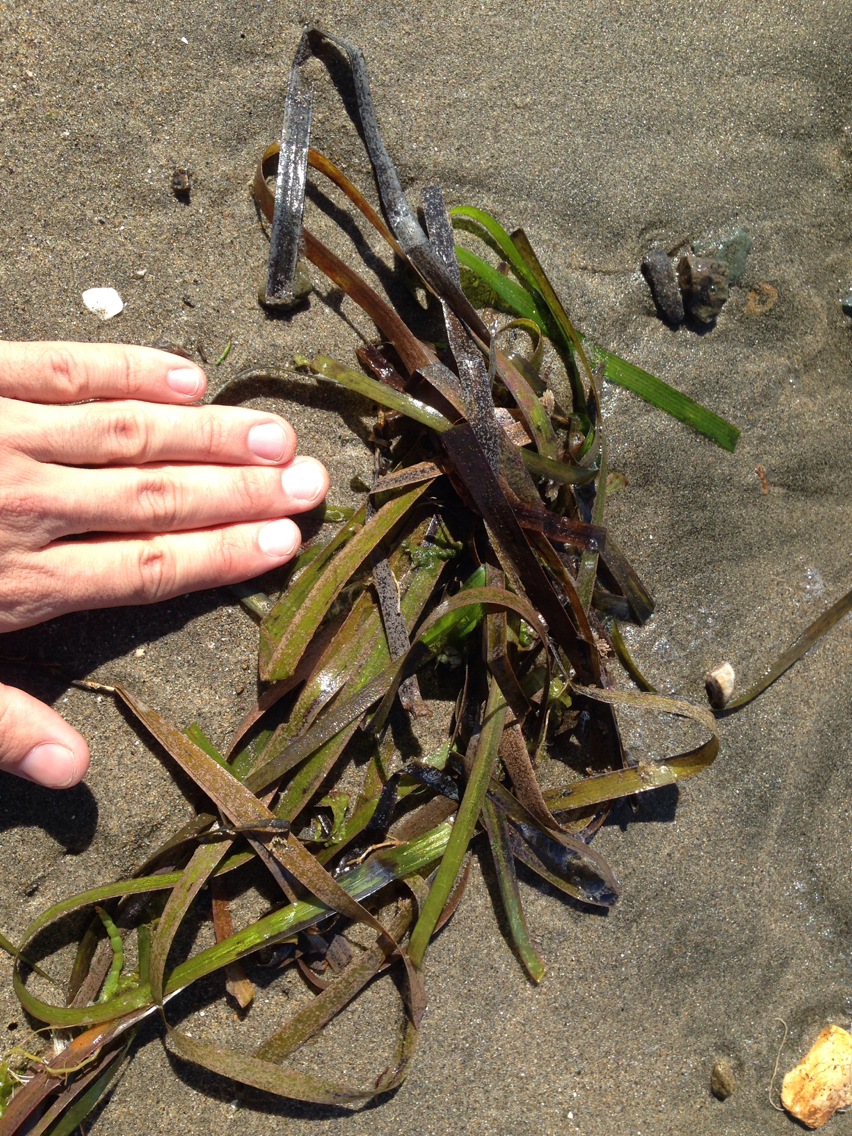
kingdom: Plantae
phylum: Tracheophyta
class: Liliopsida
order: Alismatales
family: Zosteraceae
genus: Zostera
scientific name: Zostera marina
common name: Eelgrass
